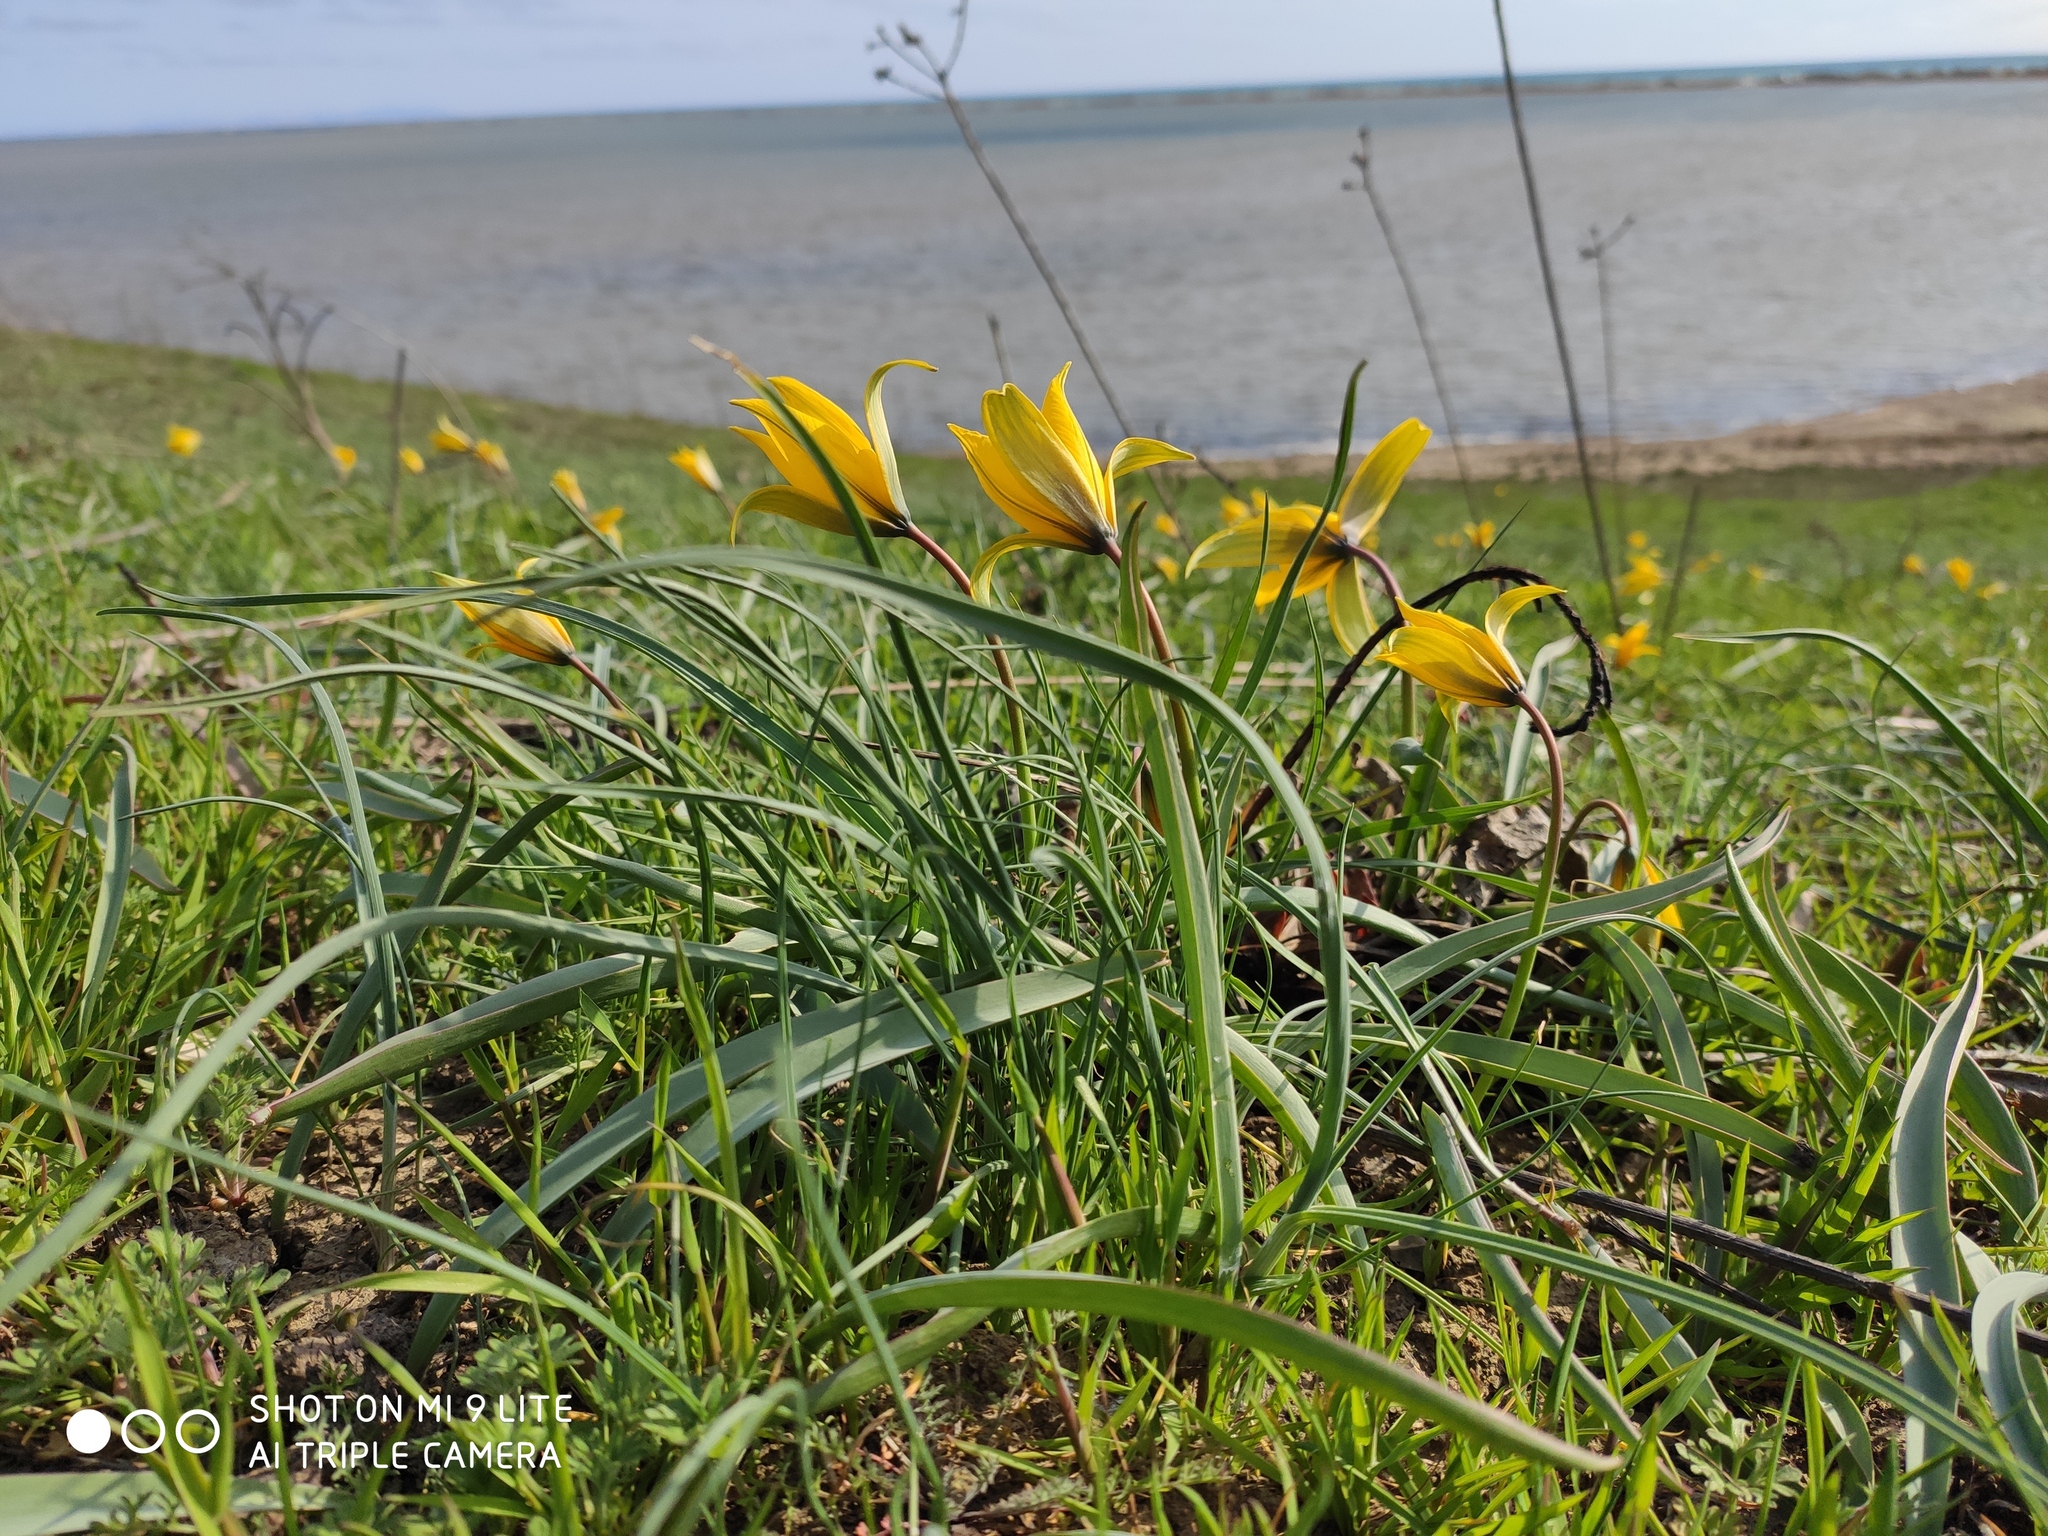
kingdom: Plantae
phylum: Tracheophyta
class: Liliopsida
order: Liliales
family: Liliaceae
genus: Tulipa
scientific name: Tulipa sylvestris
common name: Wild tulip
